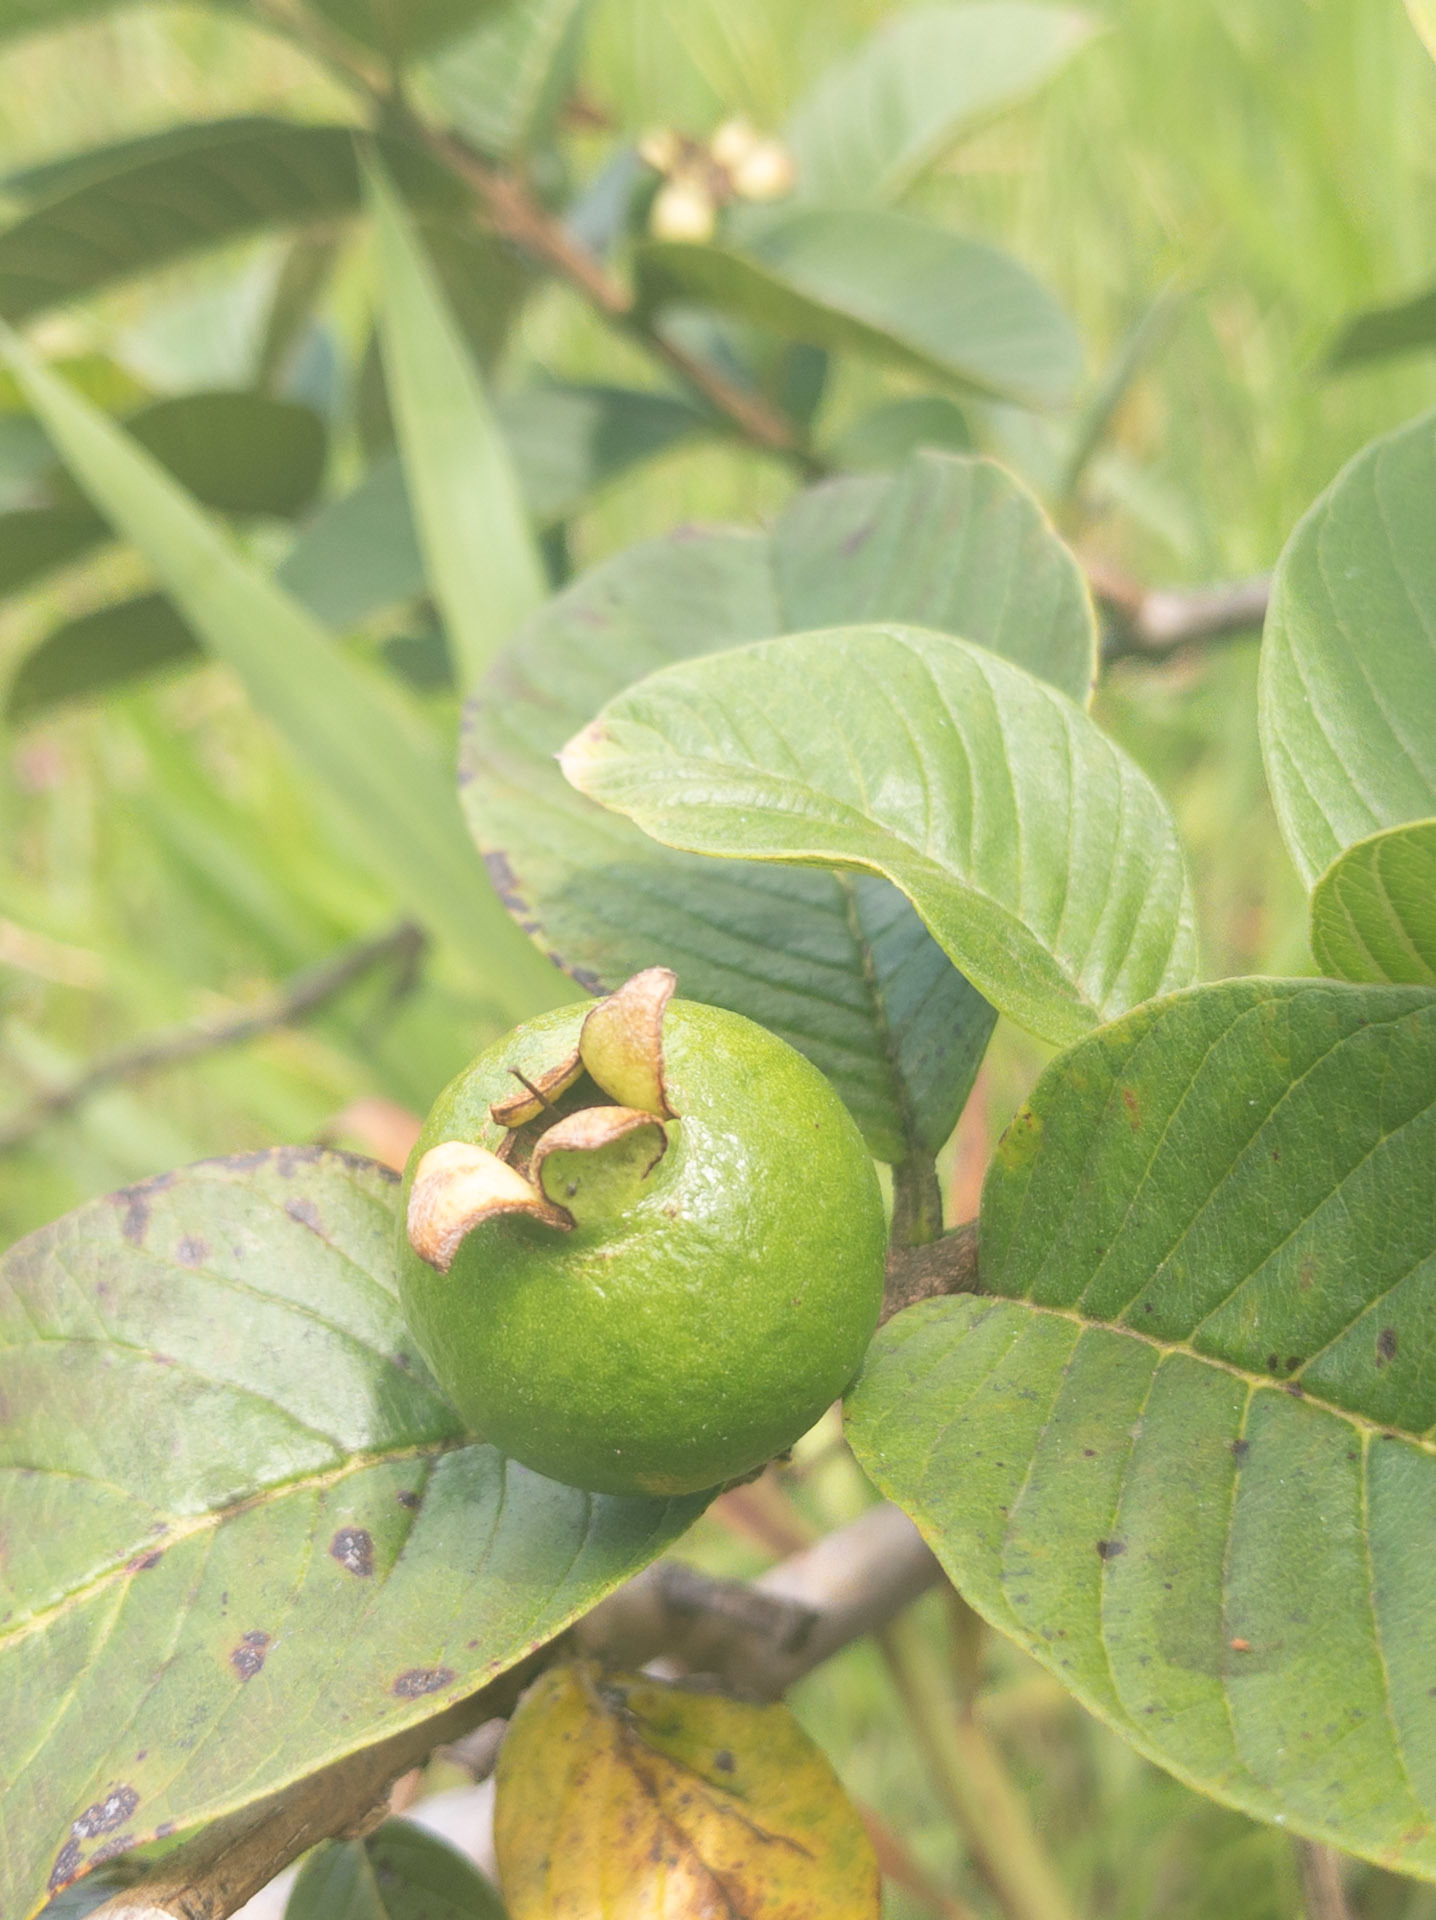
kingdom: Plantae
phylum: Tracheophyta
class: Magnoliopsida
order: Myrtales
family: Myrtaceae
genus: Psidium
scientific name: Psidium guajava
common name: Guava
